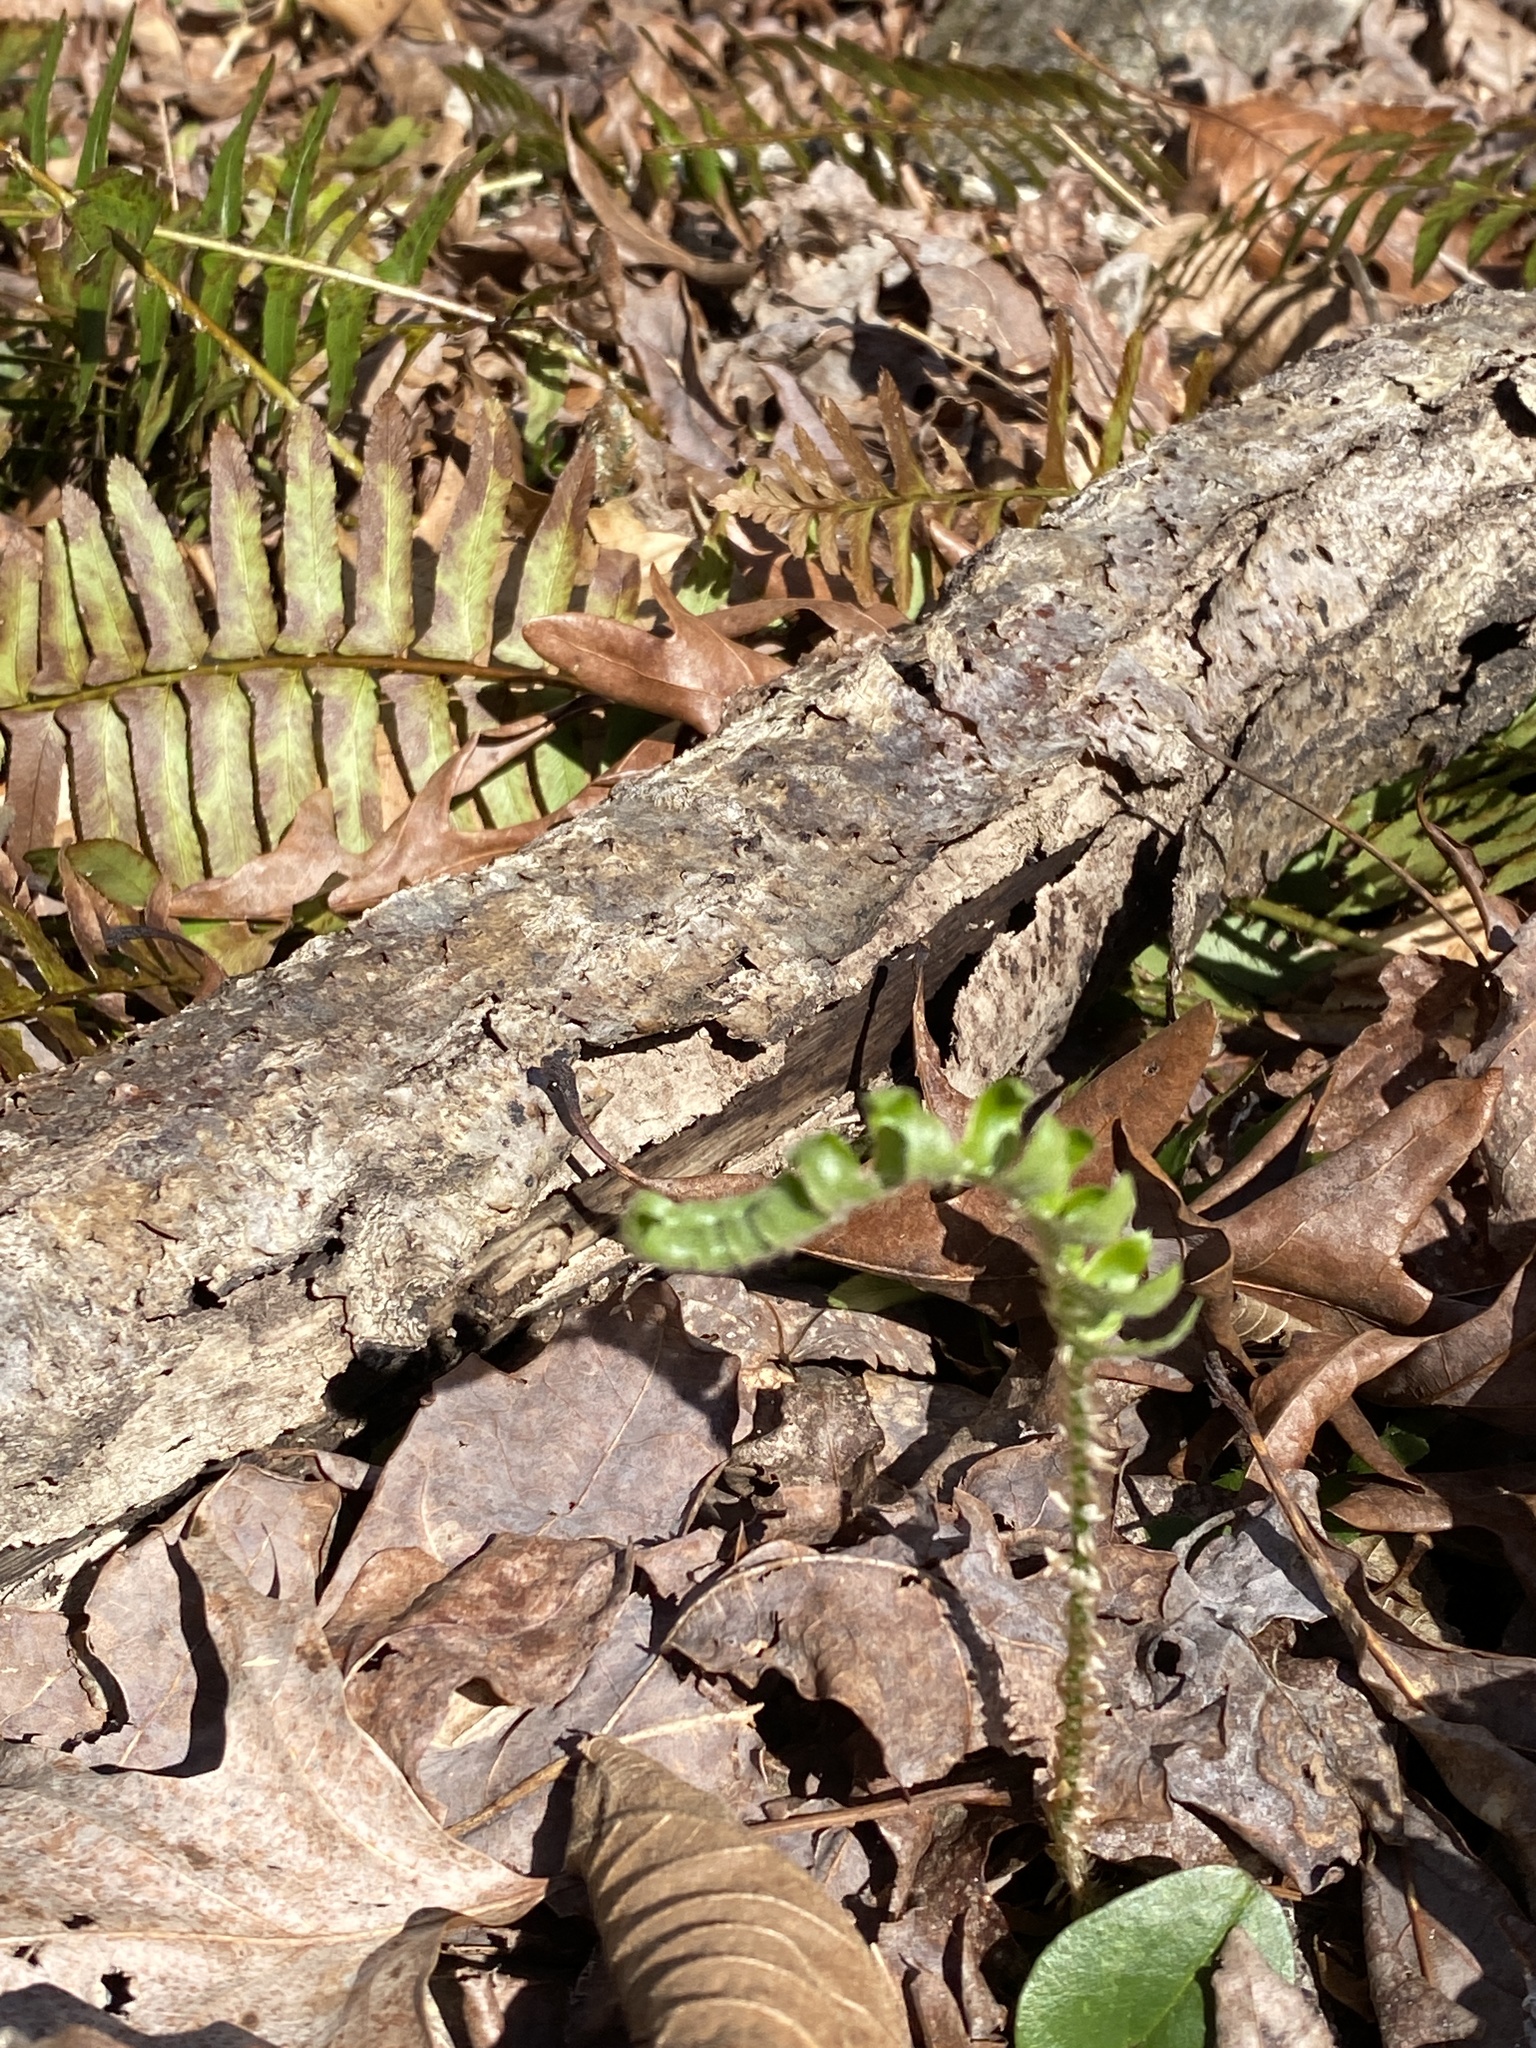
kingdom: Plantae
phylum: Tracheophyta
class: Polypodiopsida
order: Polypodiales
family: Dryopteridaceae
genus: Polystichum
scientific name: Polystichum acrostichoides
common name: Christmas fern
